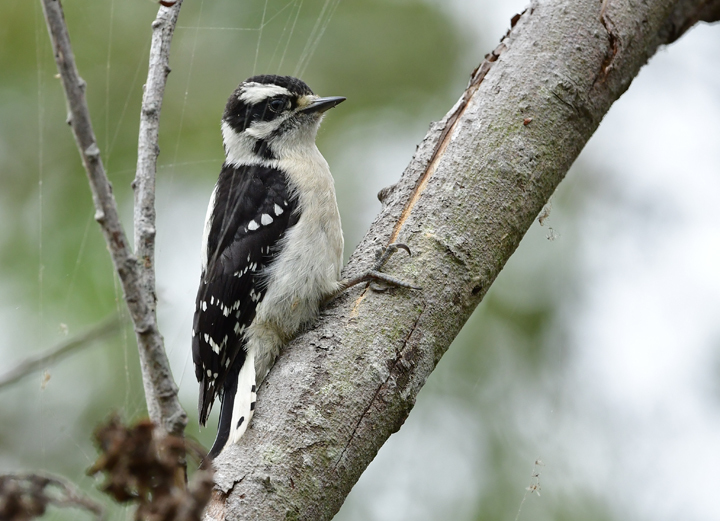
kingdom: Animalia
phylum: Chordata
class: Aves
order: Piciformes
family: Picidae
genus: Dryobates
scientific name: Dryobates pubescens
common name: Downy woodpecker
